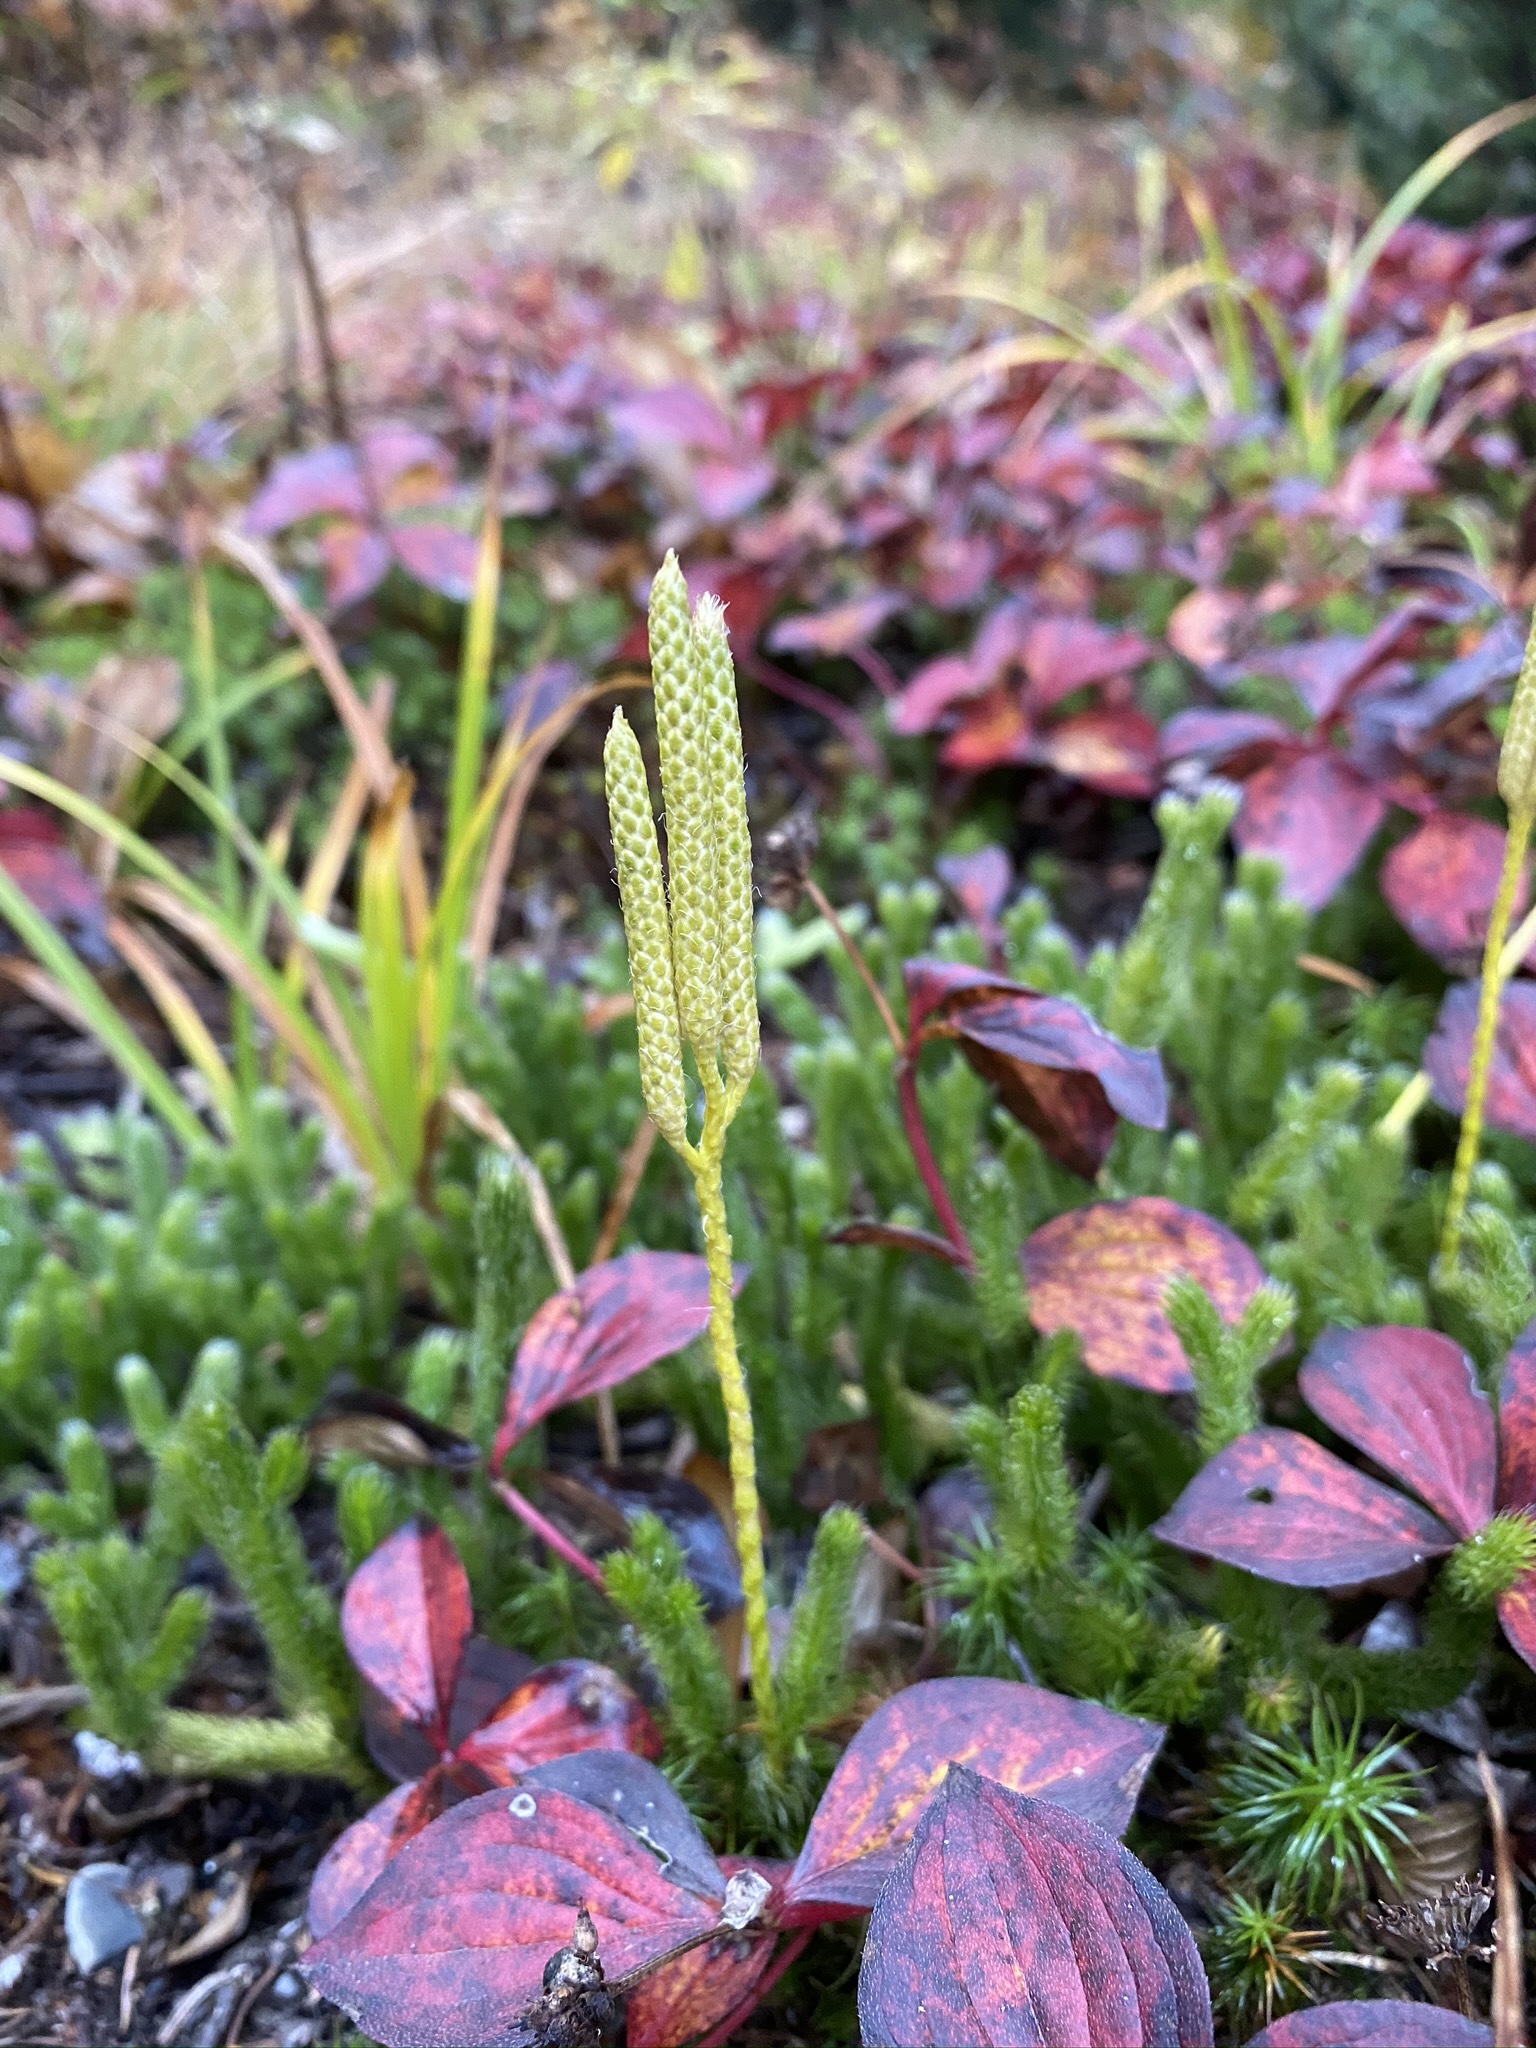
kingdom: Plantae
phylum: Tracheophyta
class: Lycopodiopsida
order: Lycopodiales
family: Lycopodiaceae
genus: Lycopodium
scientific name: Lycopodium clavatum
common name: Stag's-horn clubmoss
